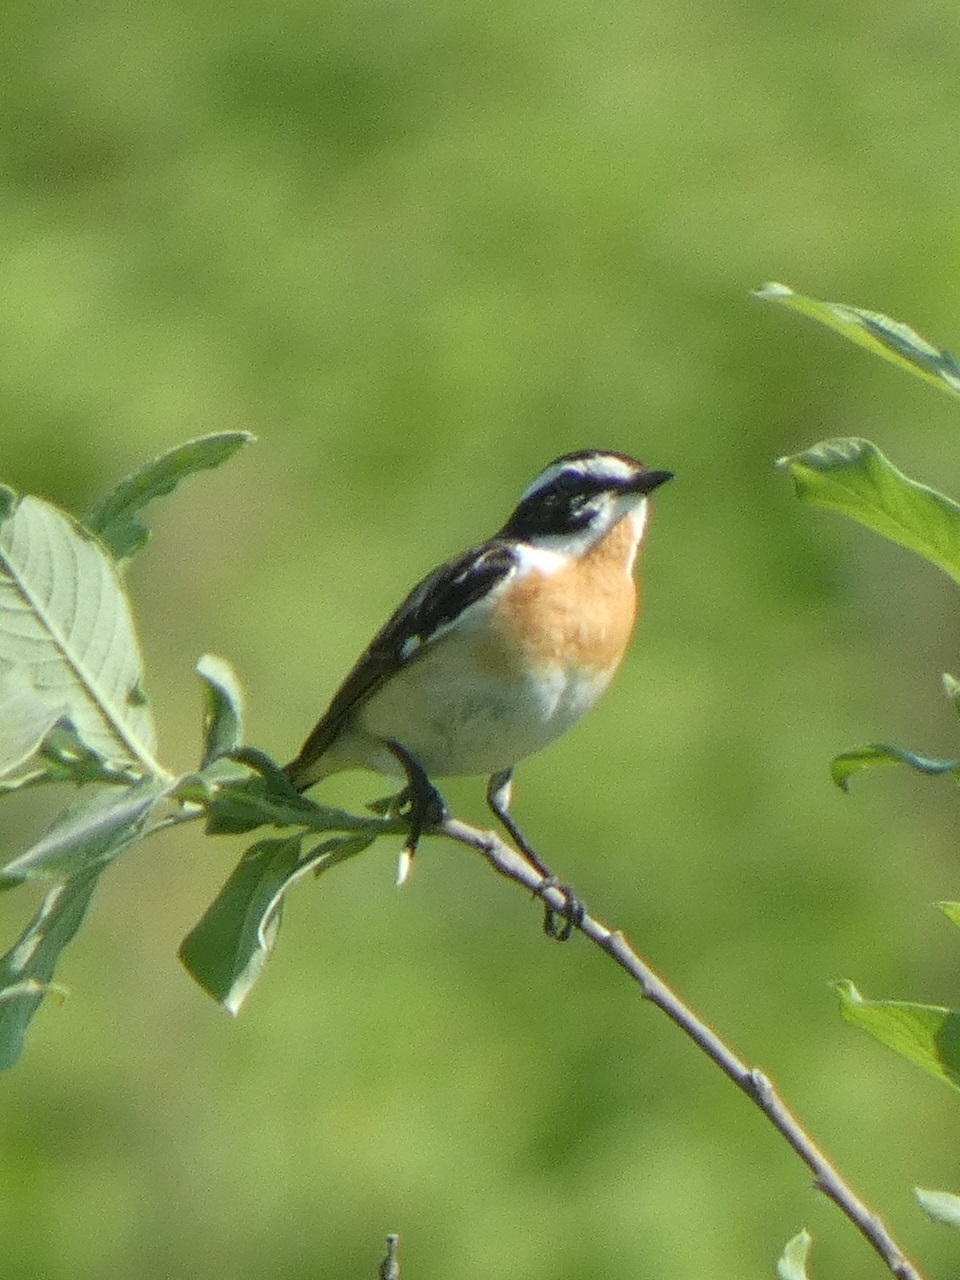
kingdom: Animalia
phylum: Chordata
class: Aves
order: Passeriformes
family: Muscicapidae
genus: Saxicola
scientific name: Saxicola rubetra
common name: Whinchat
